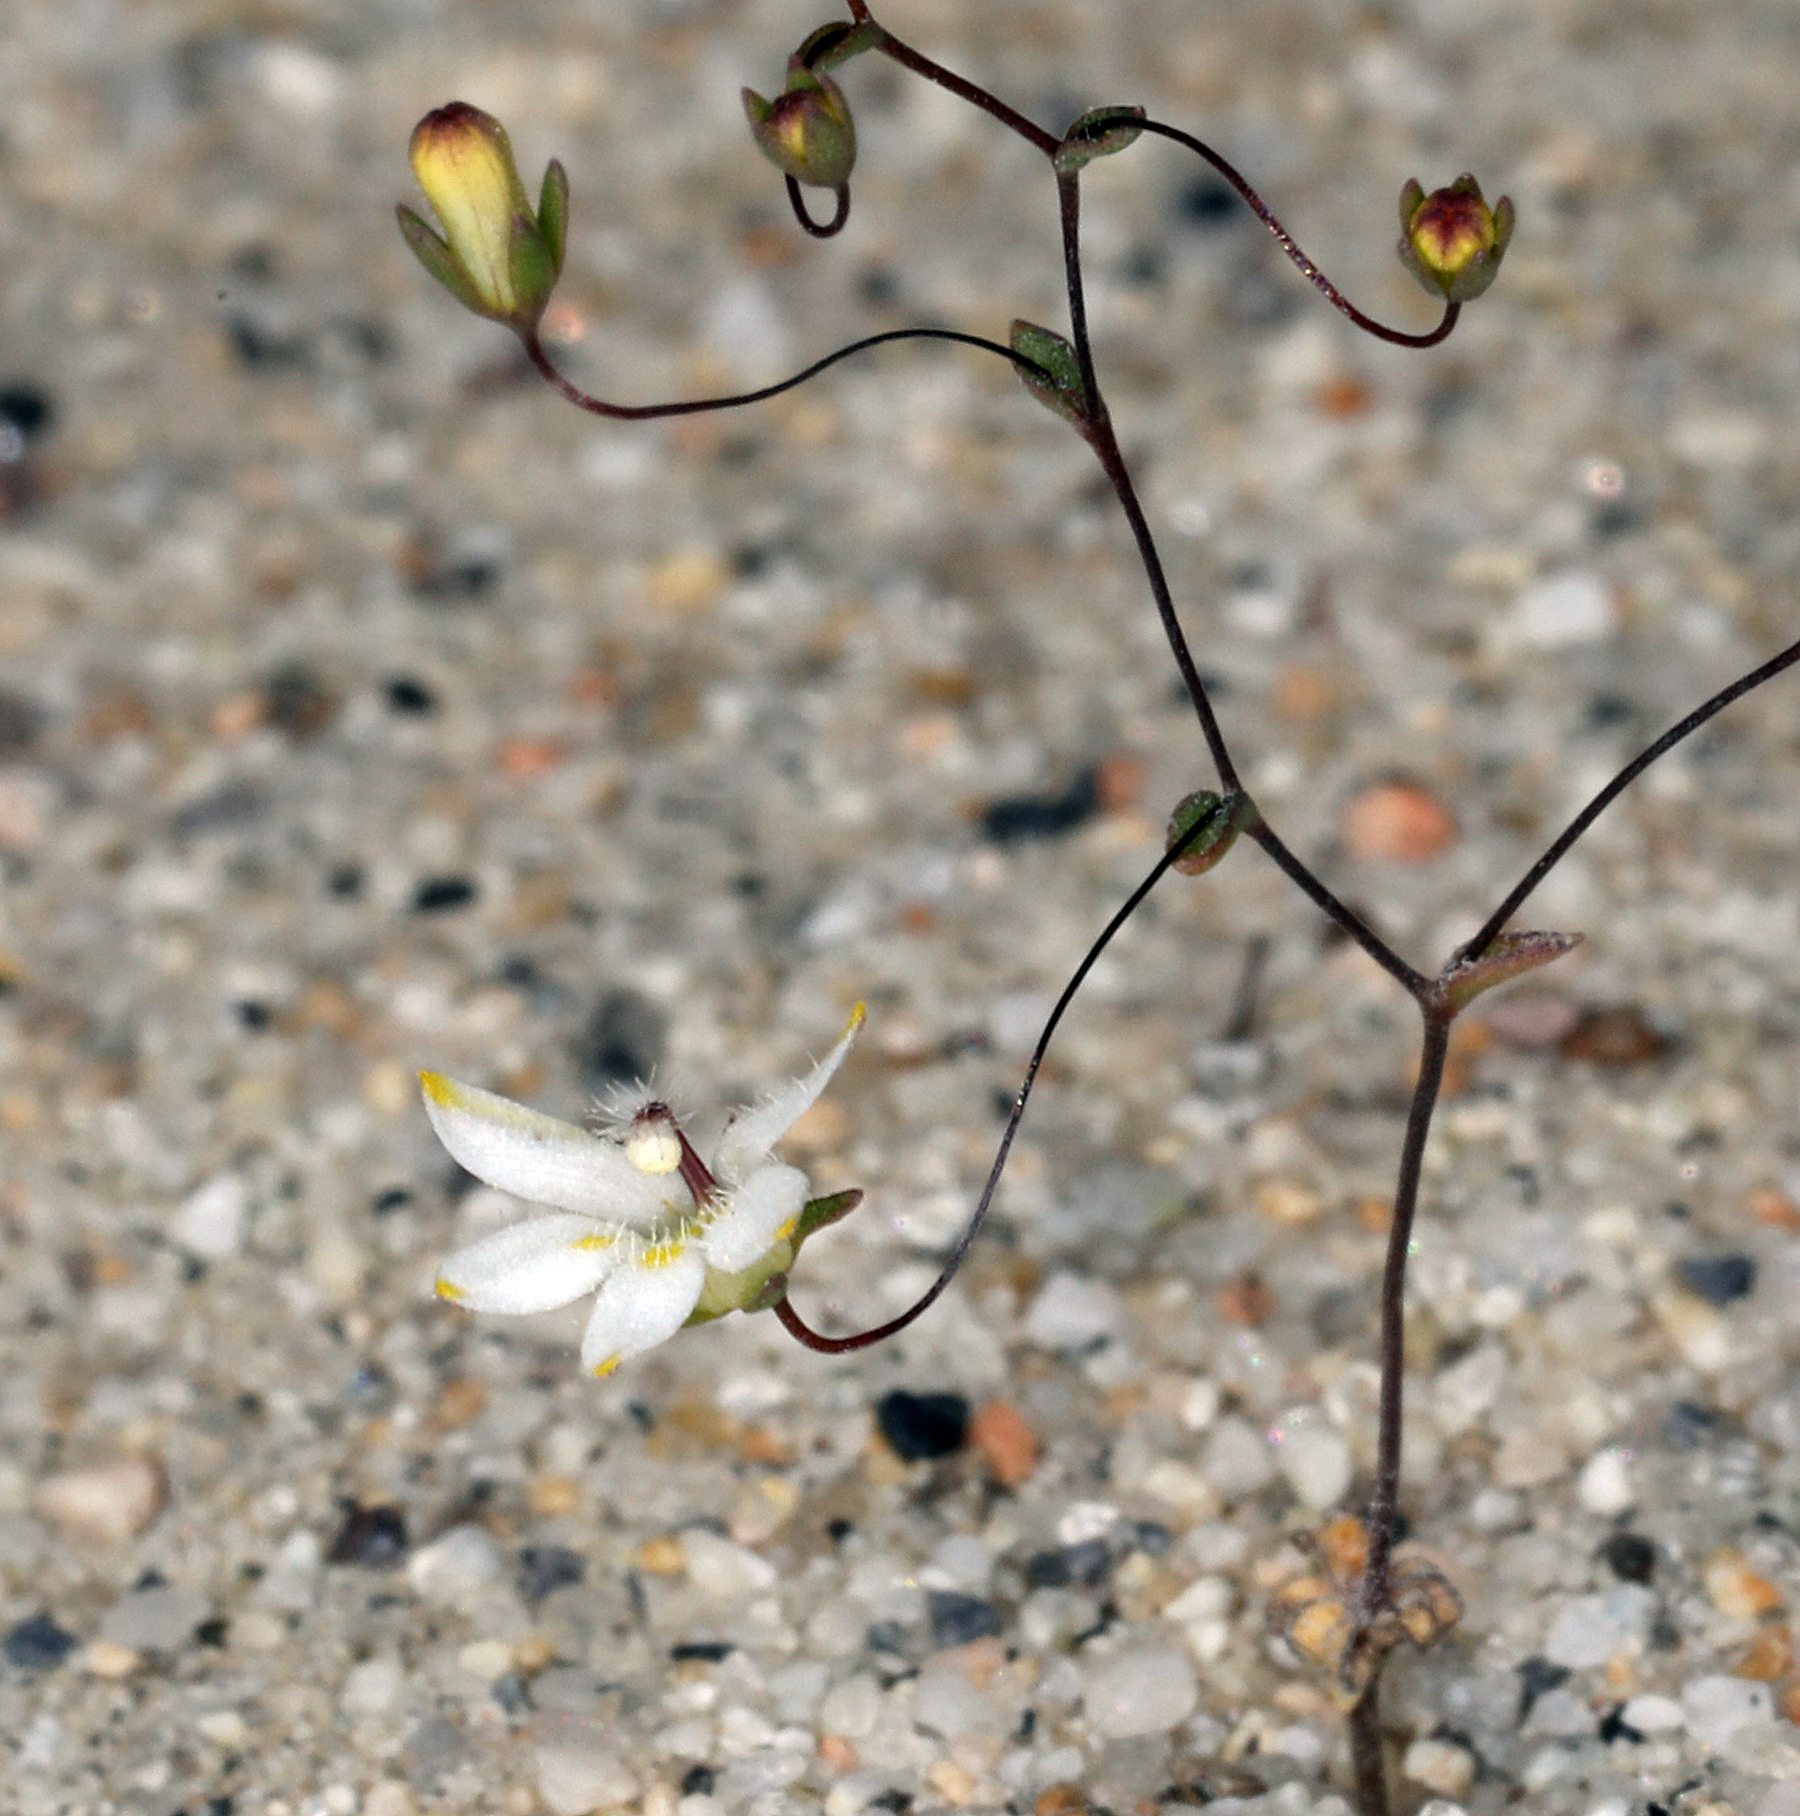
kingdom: Plantae
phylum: Tracheophyta
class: Magnoliopsida
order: Asterales
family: Campanulaceae
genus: Nemacladus
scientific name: Nemacladus matsonii
